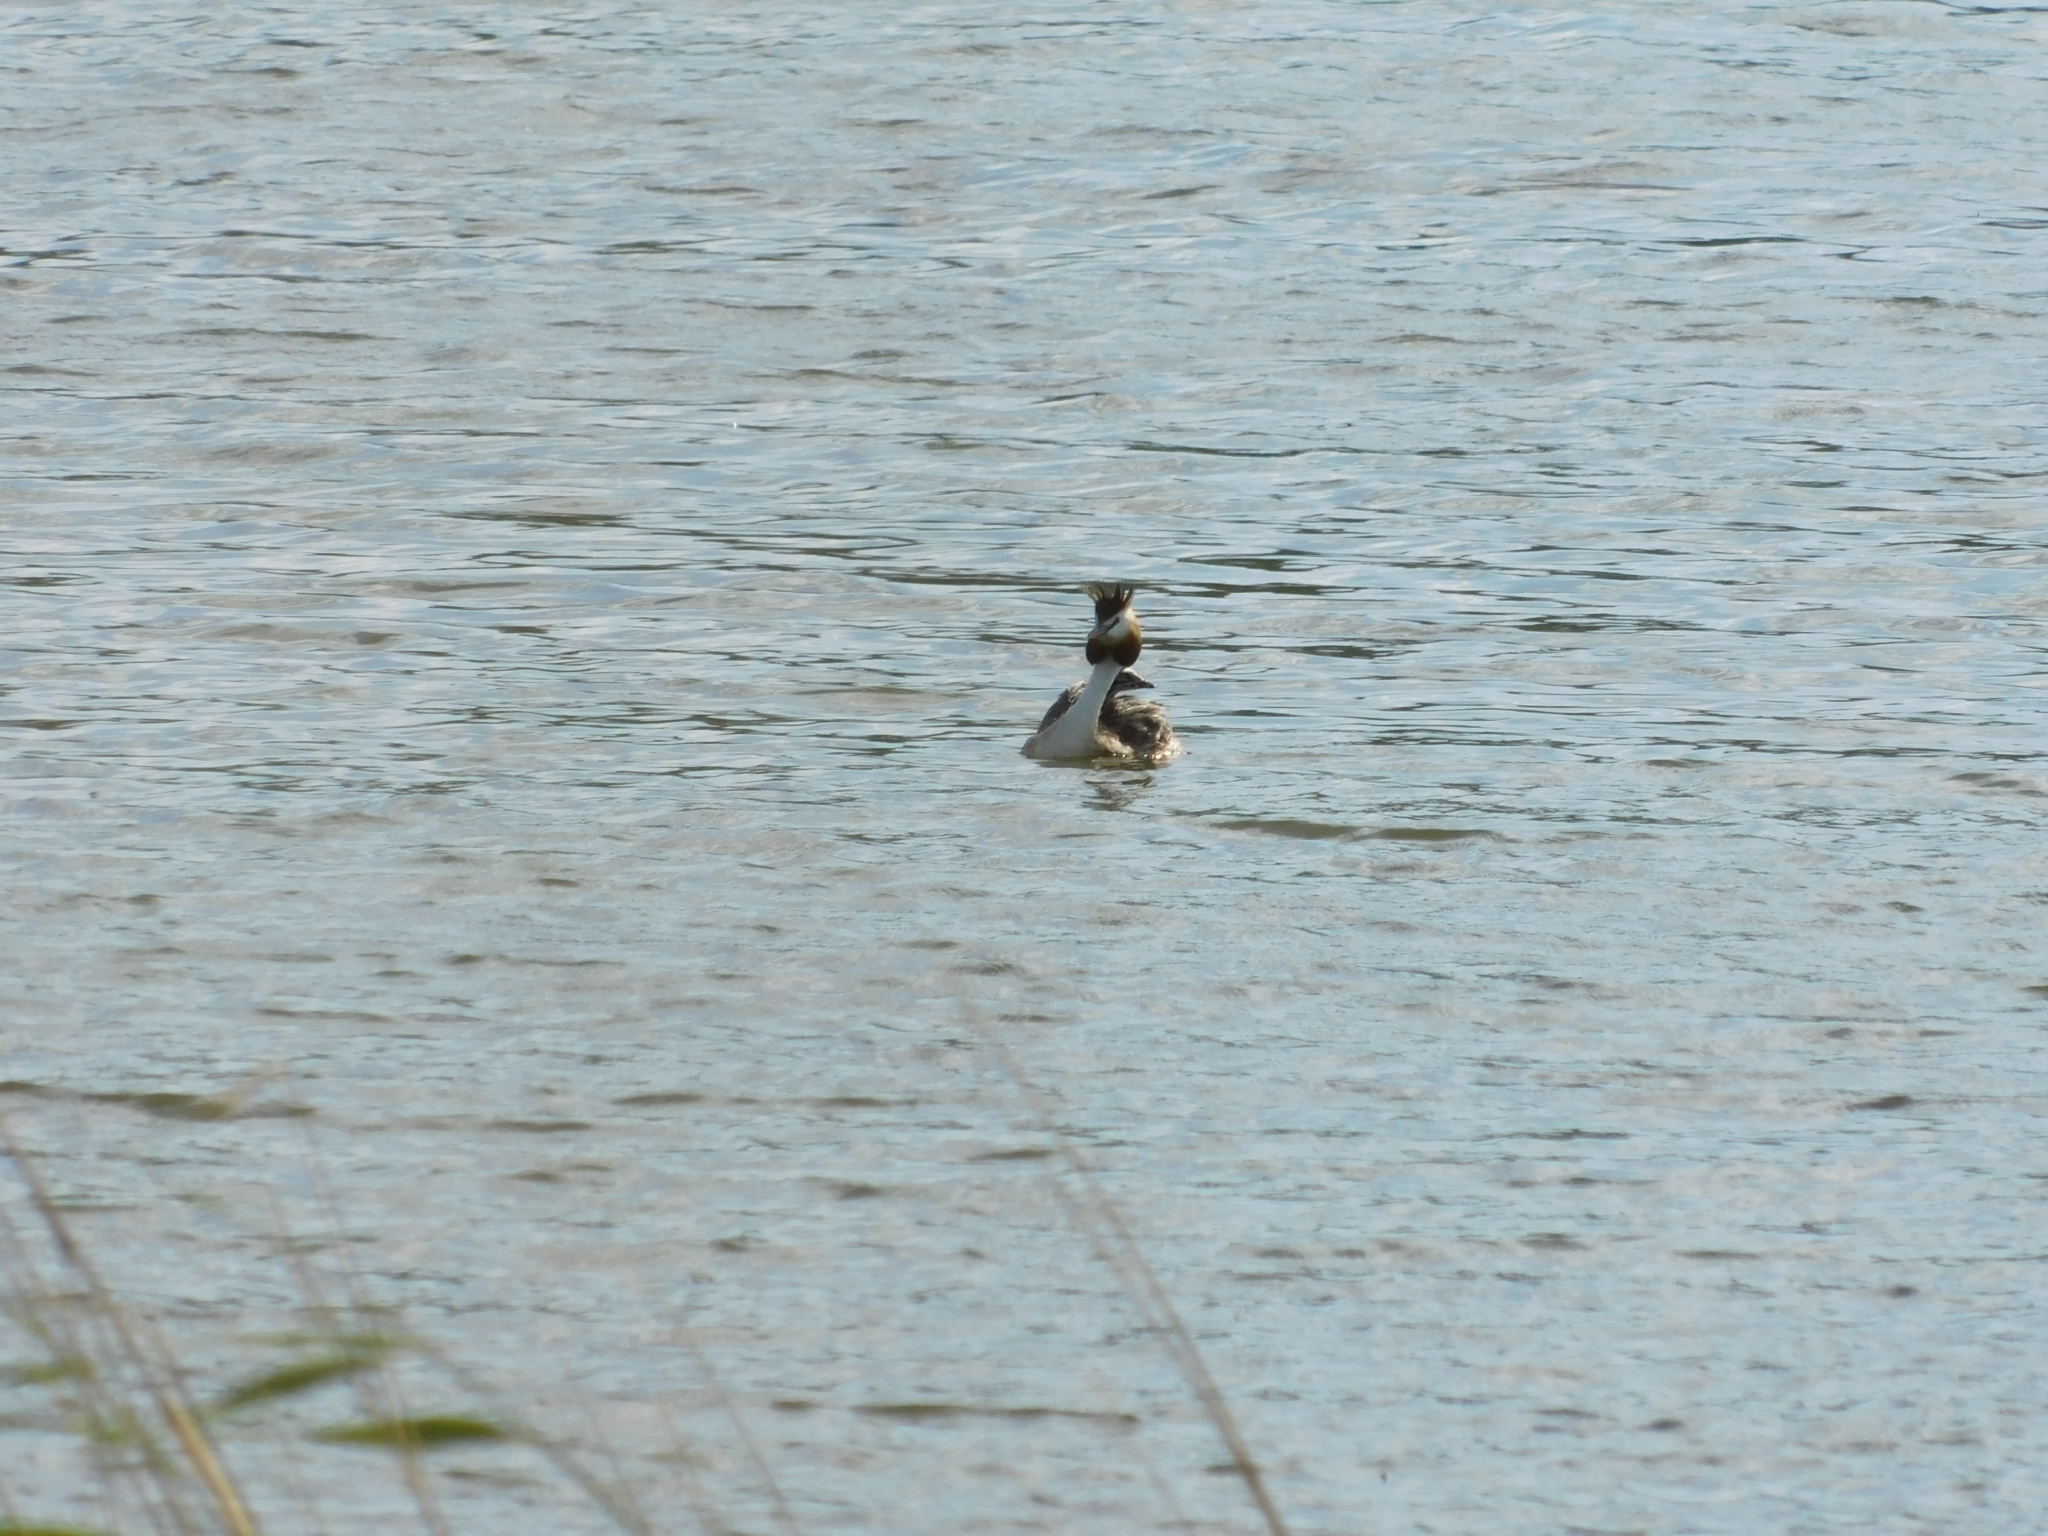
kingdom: Animalia
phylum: Chordata
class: Aves
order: Podicipediformes
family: Podicipedidae
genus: Podiceps
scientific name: Podiceps cristatus
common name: Great crested grebe
